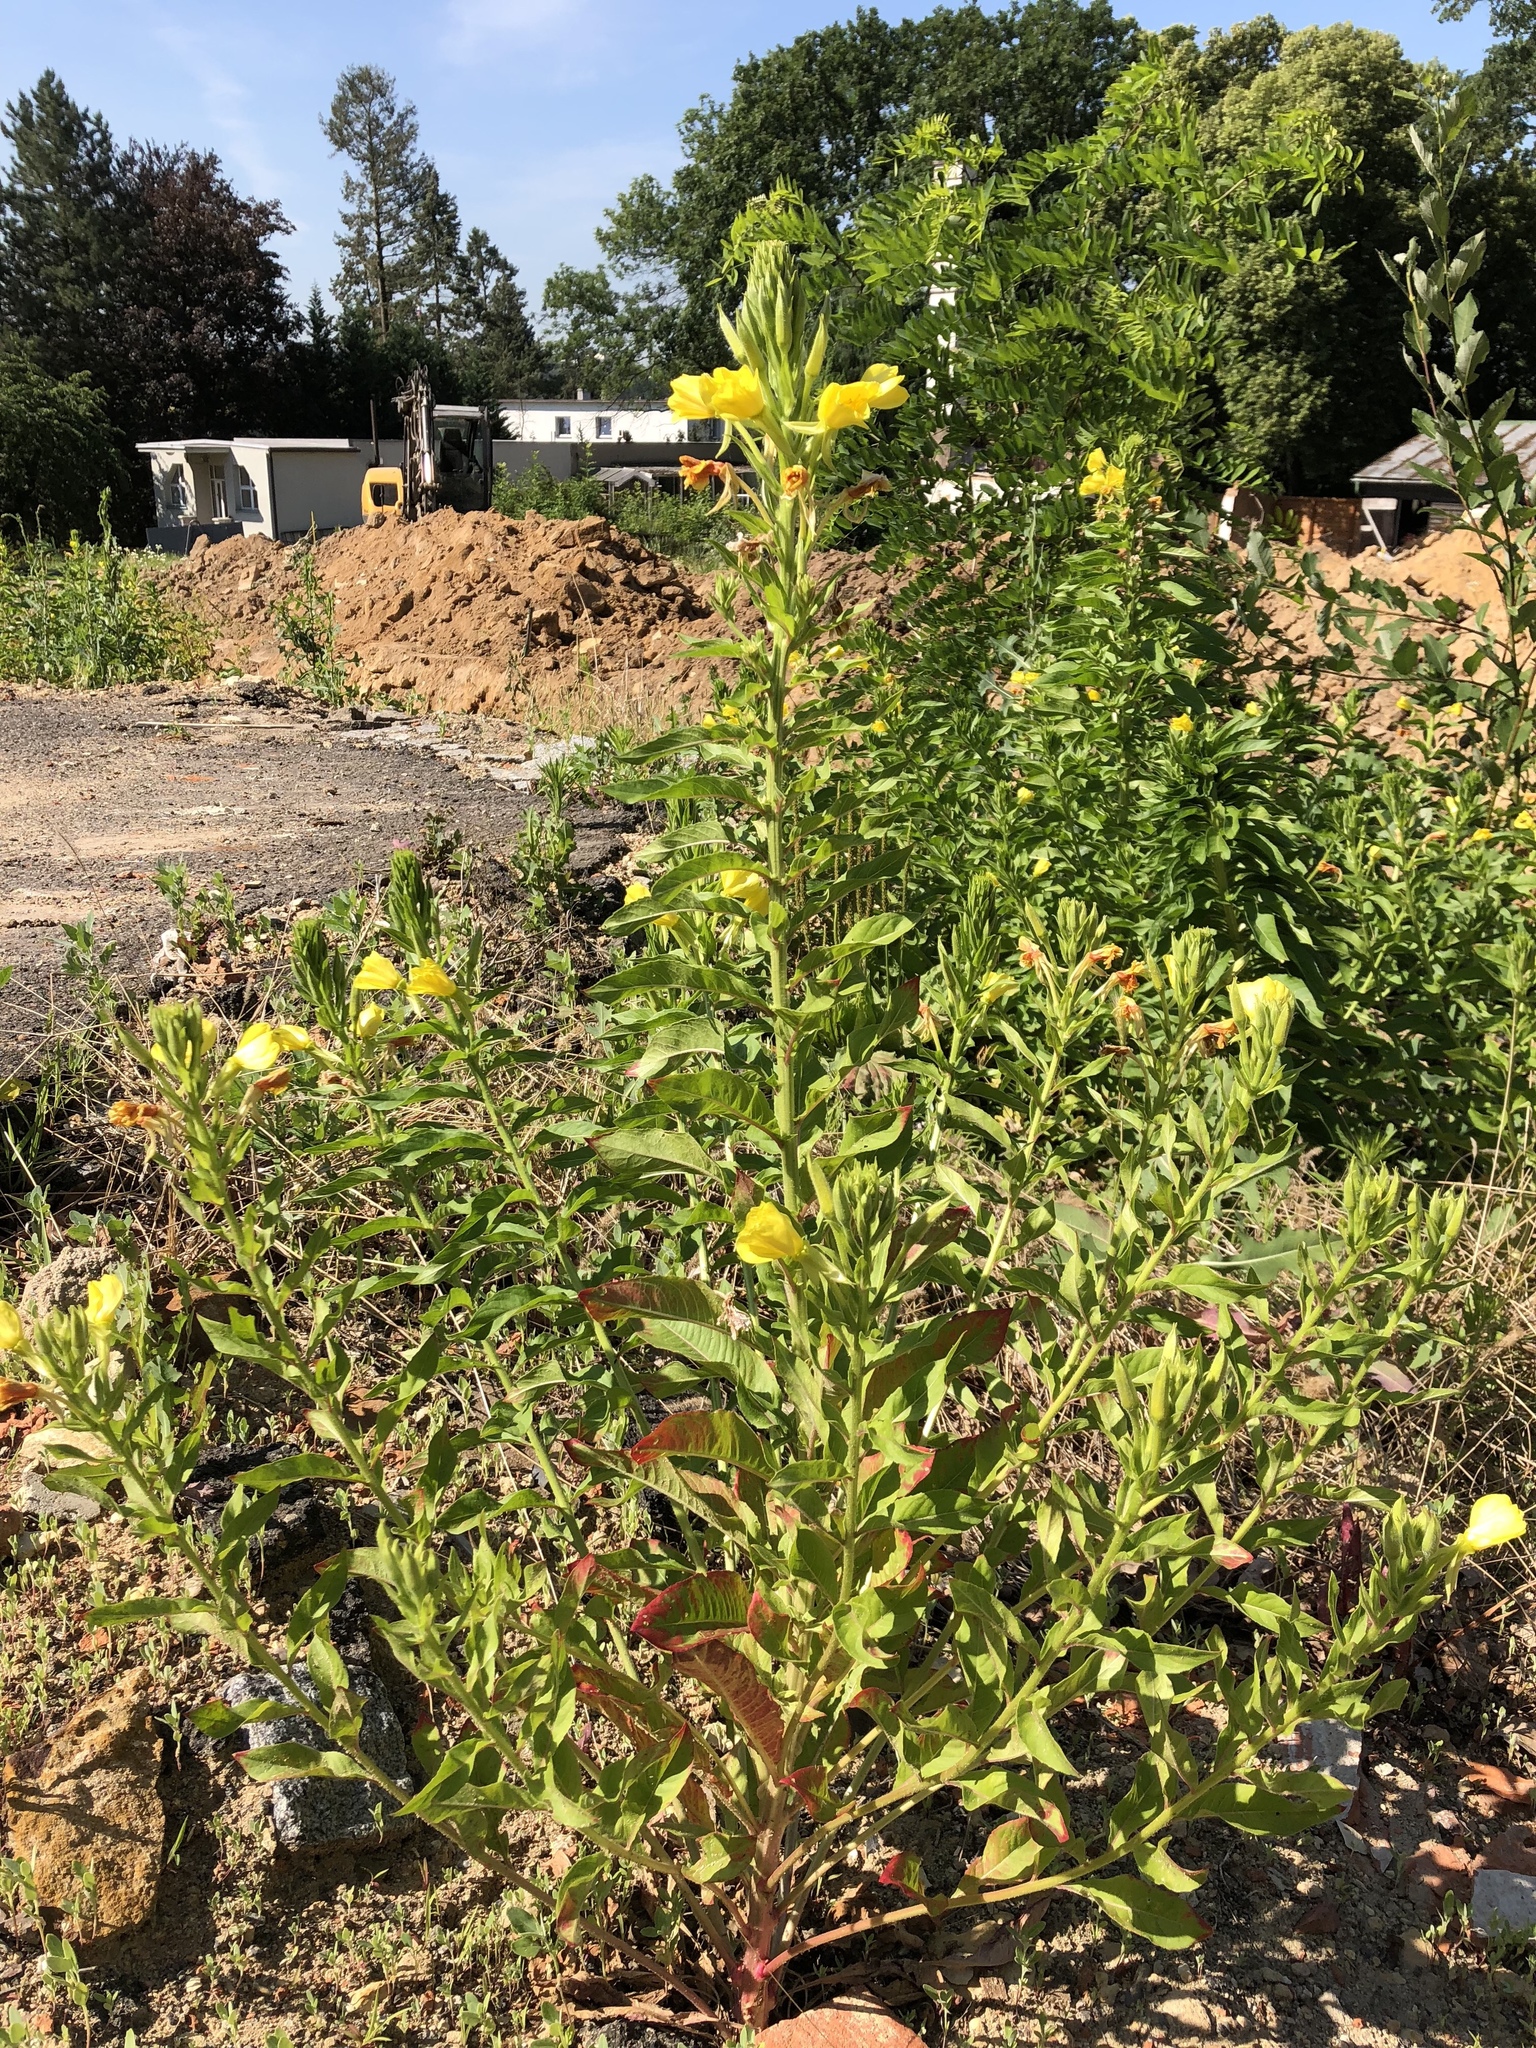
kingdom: Plantae
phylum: Tracheophyta
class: Magnoliopsida
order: Myrtales
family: Onagraceae
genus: Oenothera
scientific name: Oenothera biennis
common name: Common evening-primrose
